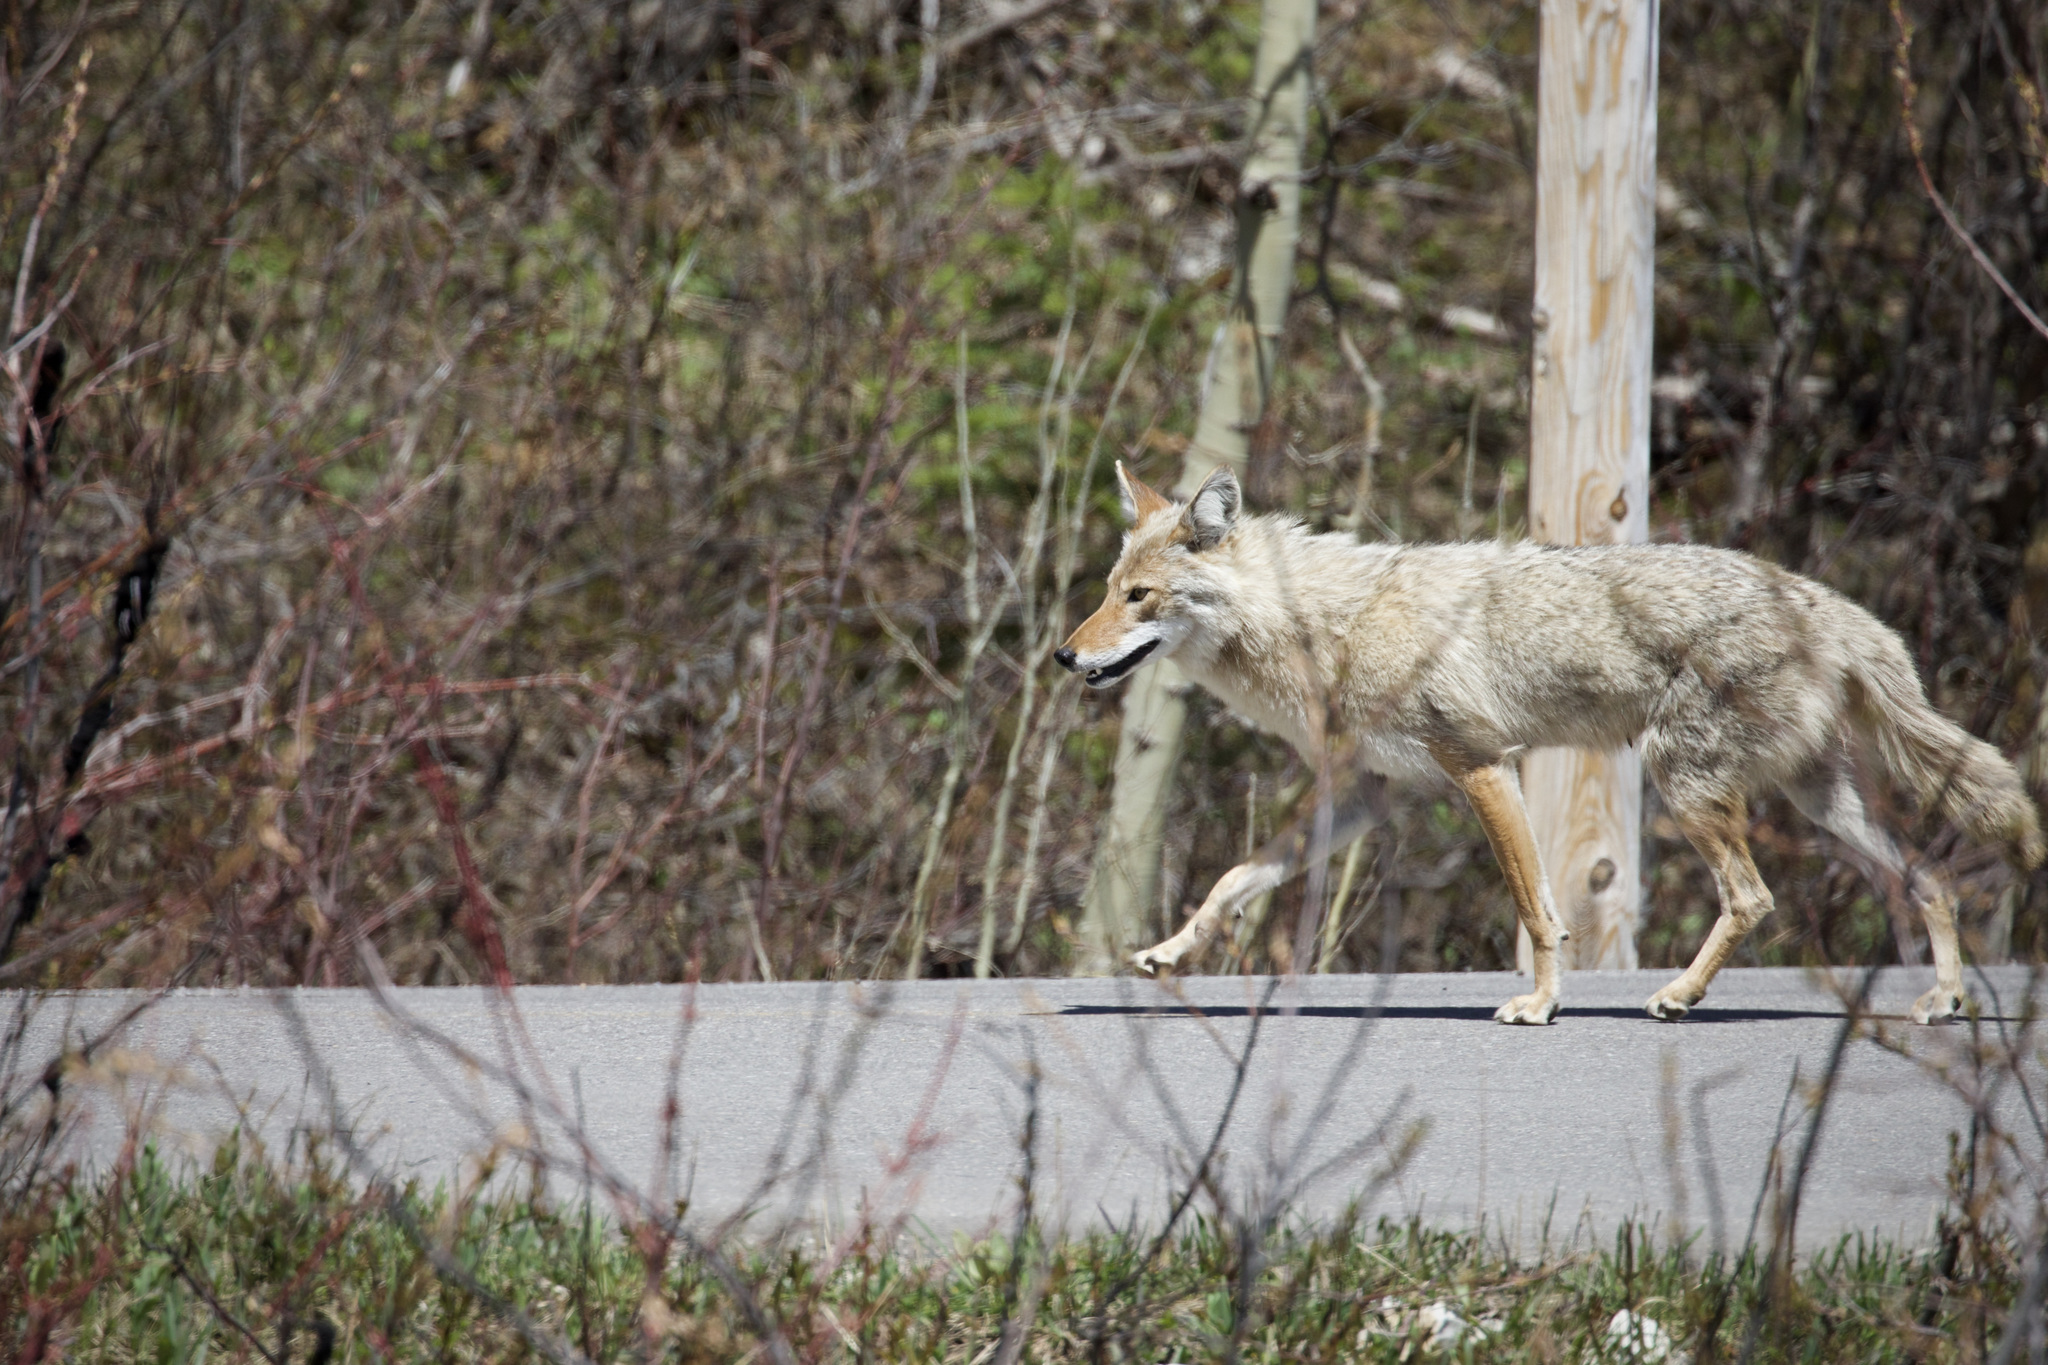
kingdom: Animalia
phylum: Chordata
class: Mammalia
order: Carnivora
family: Canidae
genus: Canis
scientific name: Canis latrans
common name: Coyote
